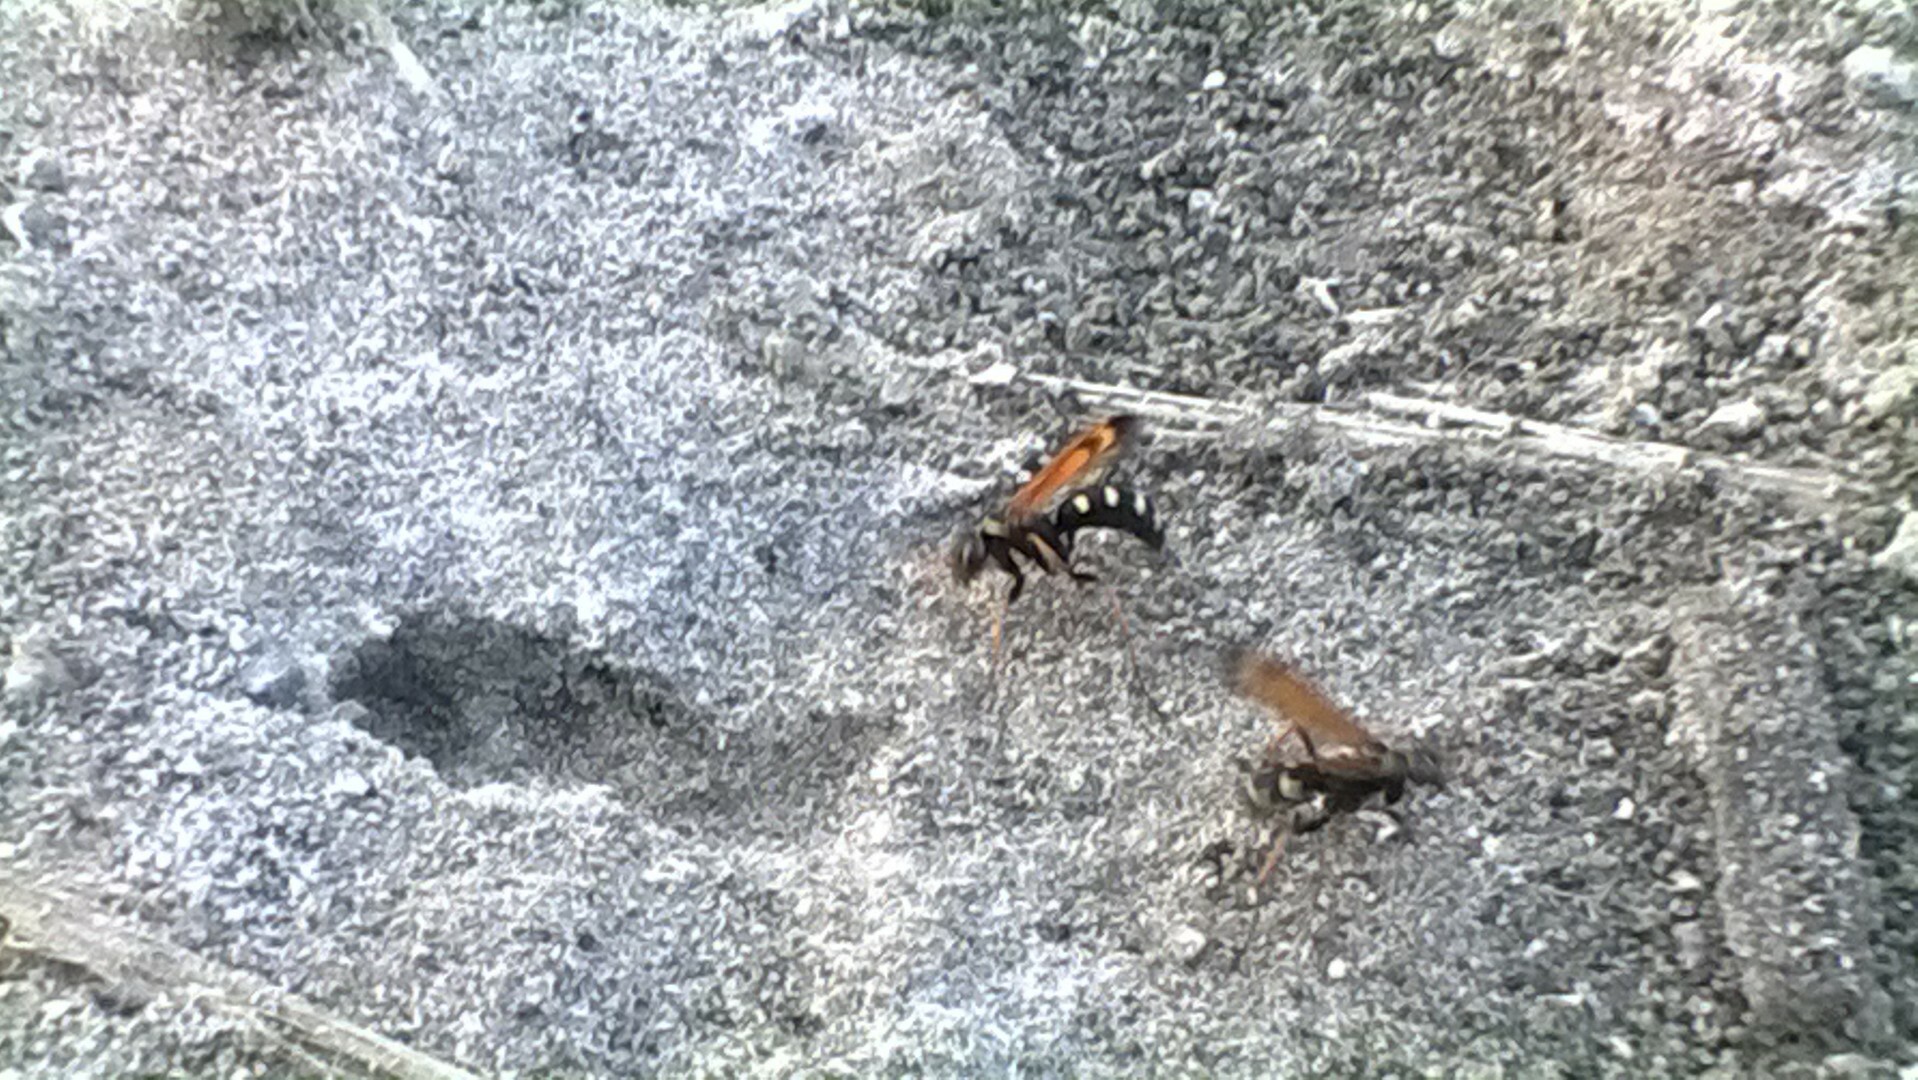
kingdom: Animalia
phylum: Arthropoda
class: Insecta
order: Hymenoptera
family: Pompilidae
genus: Parabatozonus
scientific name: Parabatozonus lacerticida
